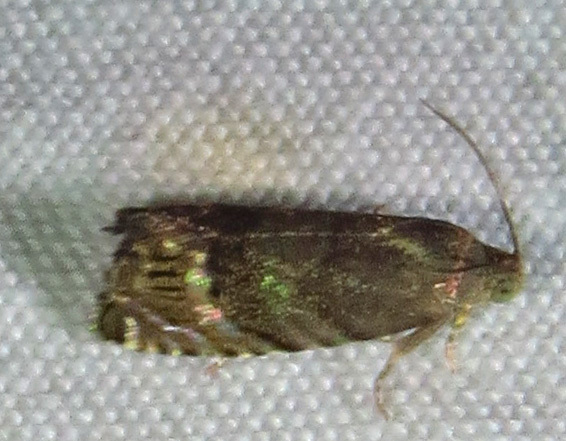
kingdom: Animalia
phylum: Arthropoda
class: Insecta
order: Lepidoptera
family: Tortricidae
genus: Cydia
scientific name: Cydia caryana
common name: Hickory shuckworm moth
